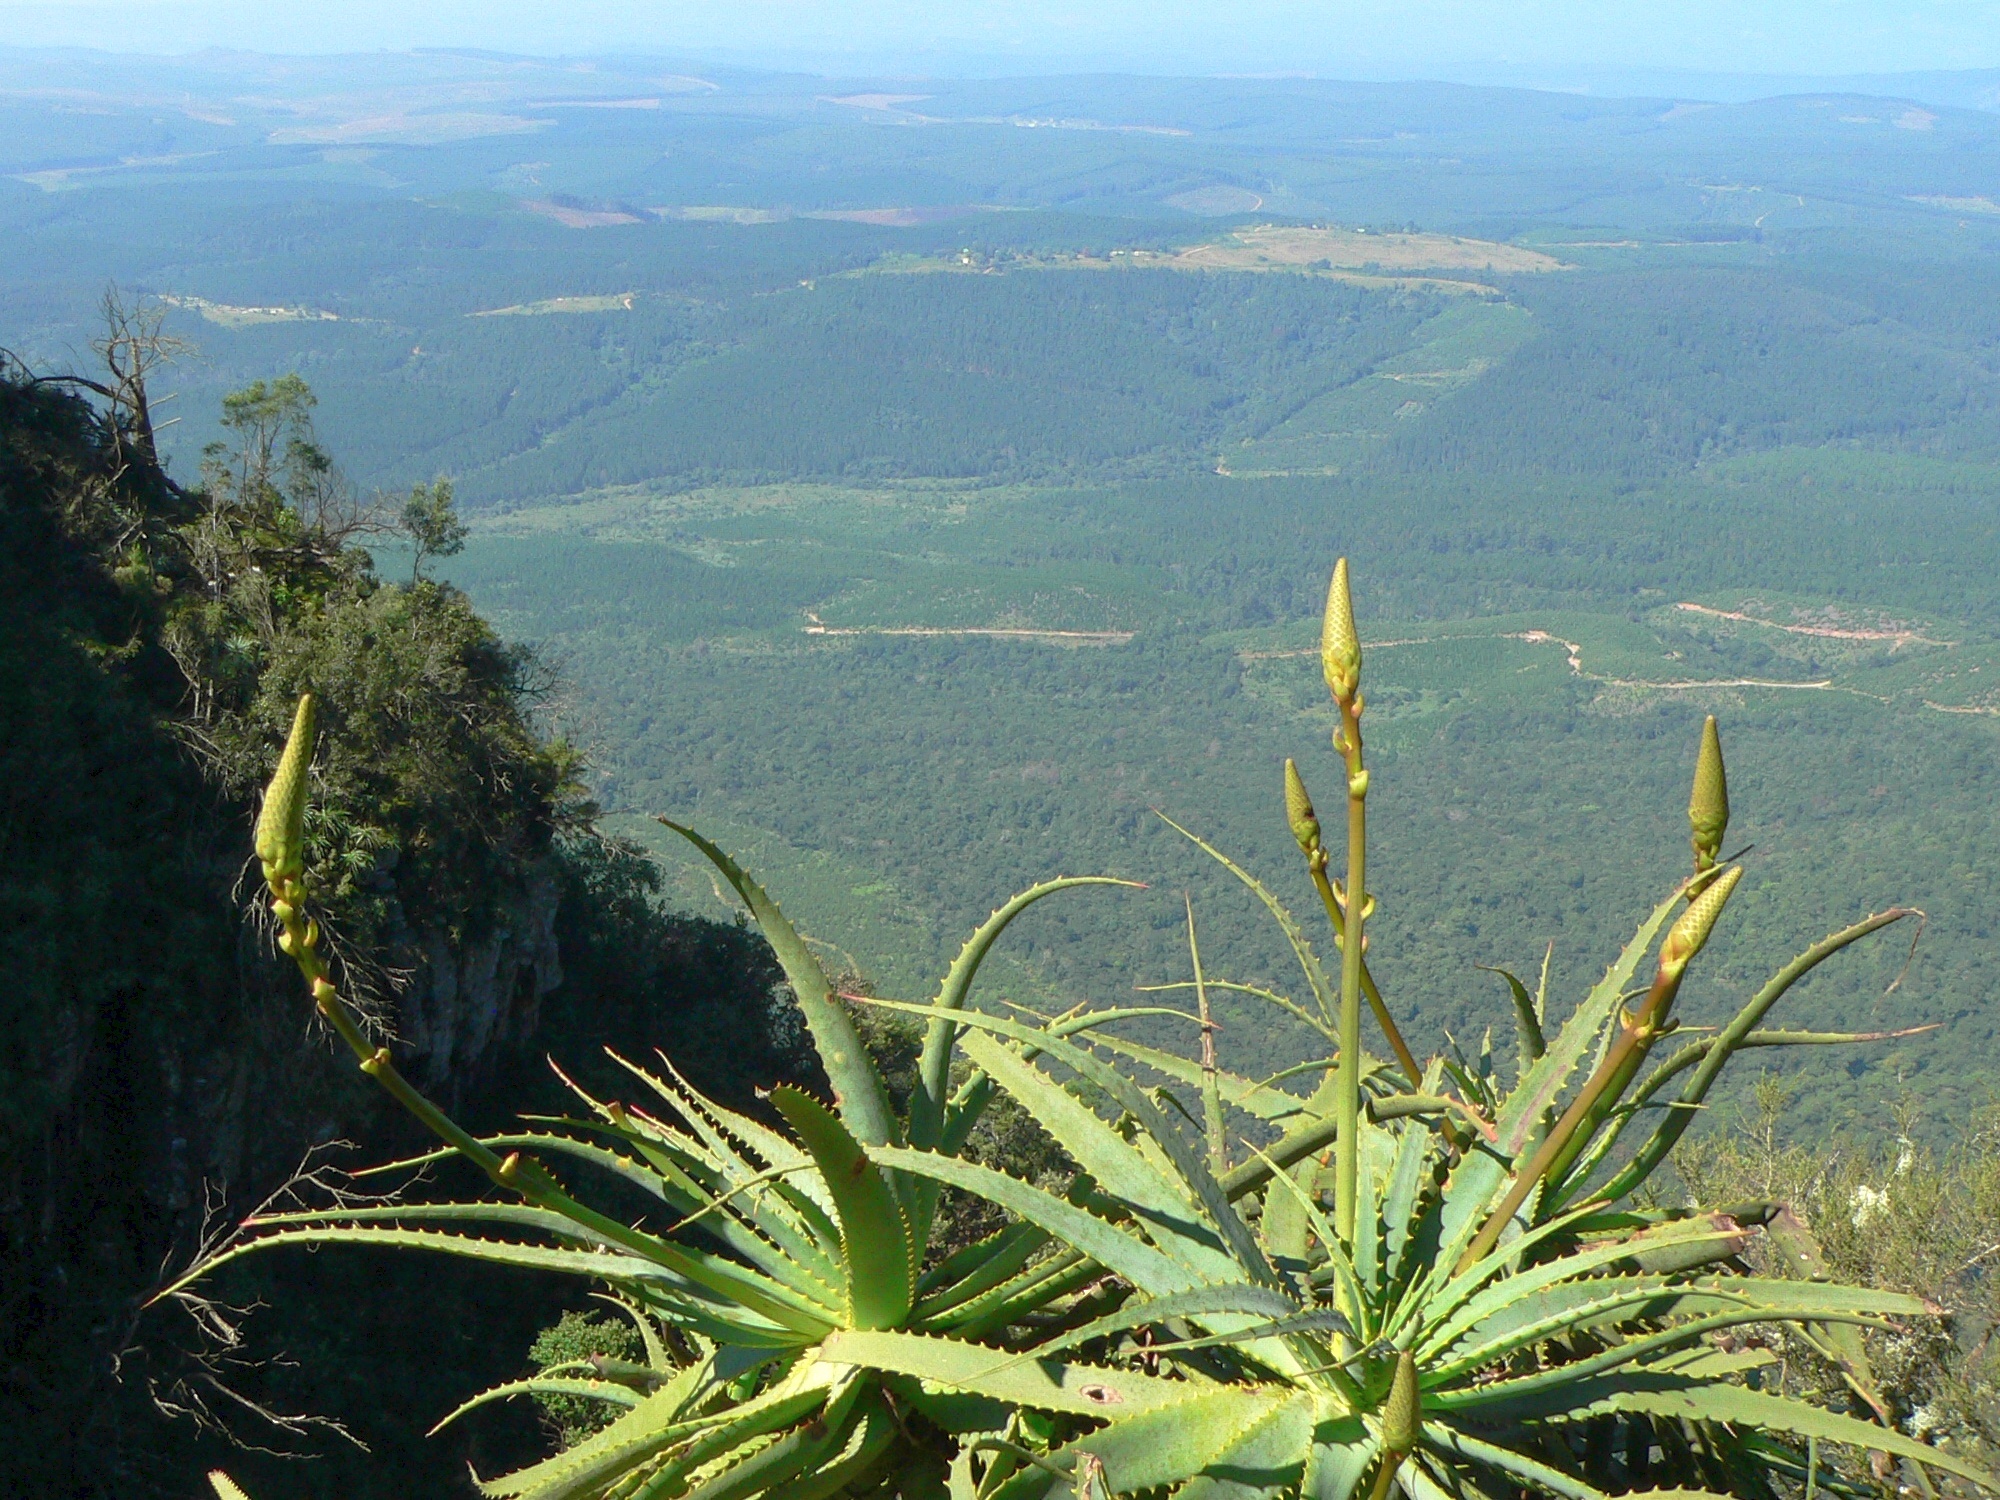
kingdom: Plantae
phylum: Tracheophyta
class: Liliopsida
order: Asparagales
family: Asphodelaceae
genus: Aloe
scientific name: Aloe arborescens
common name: Candelabra aloe
